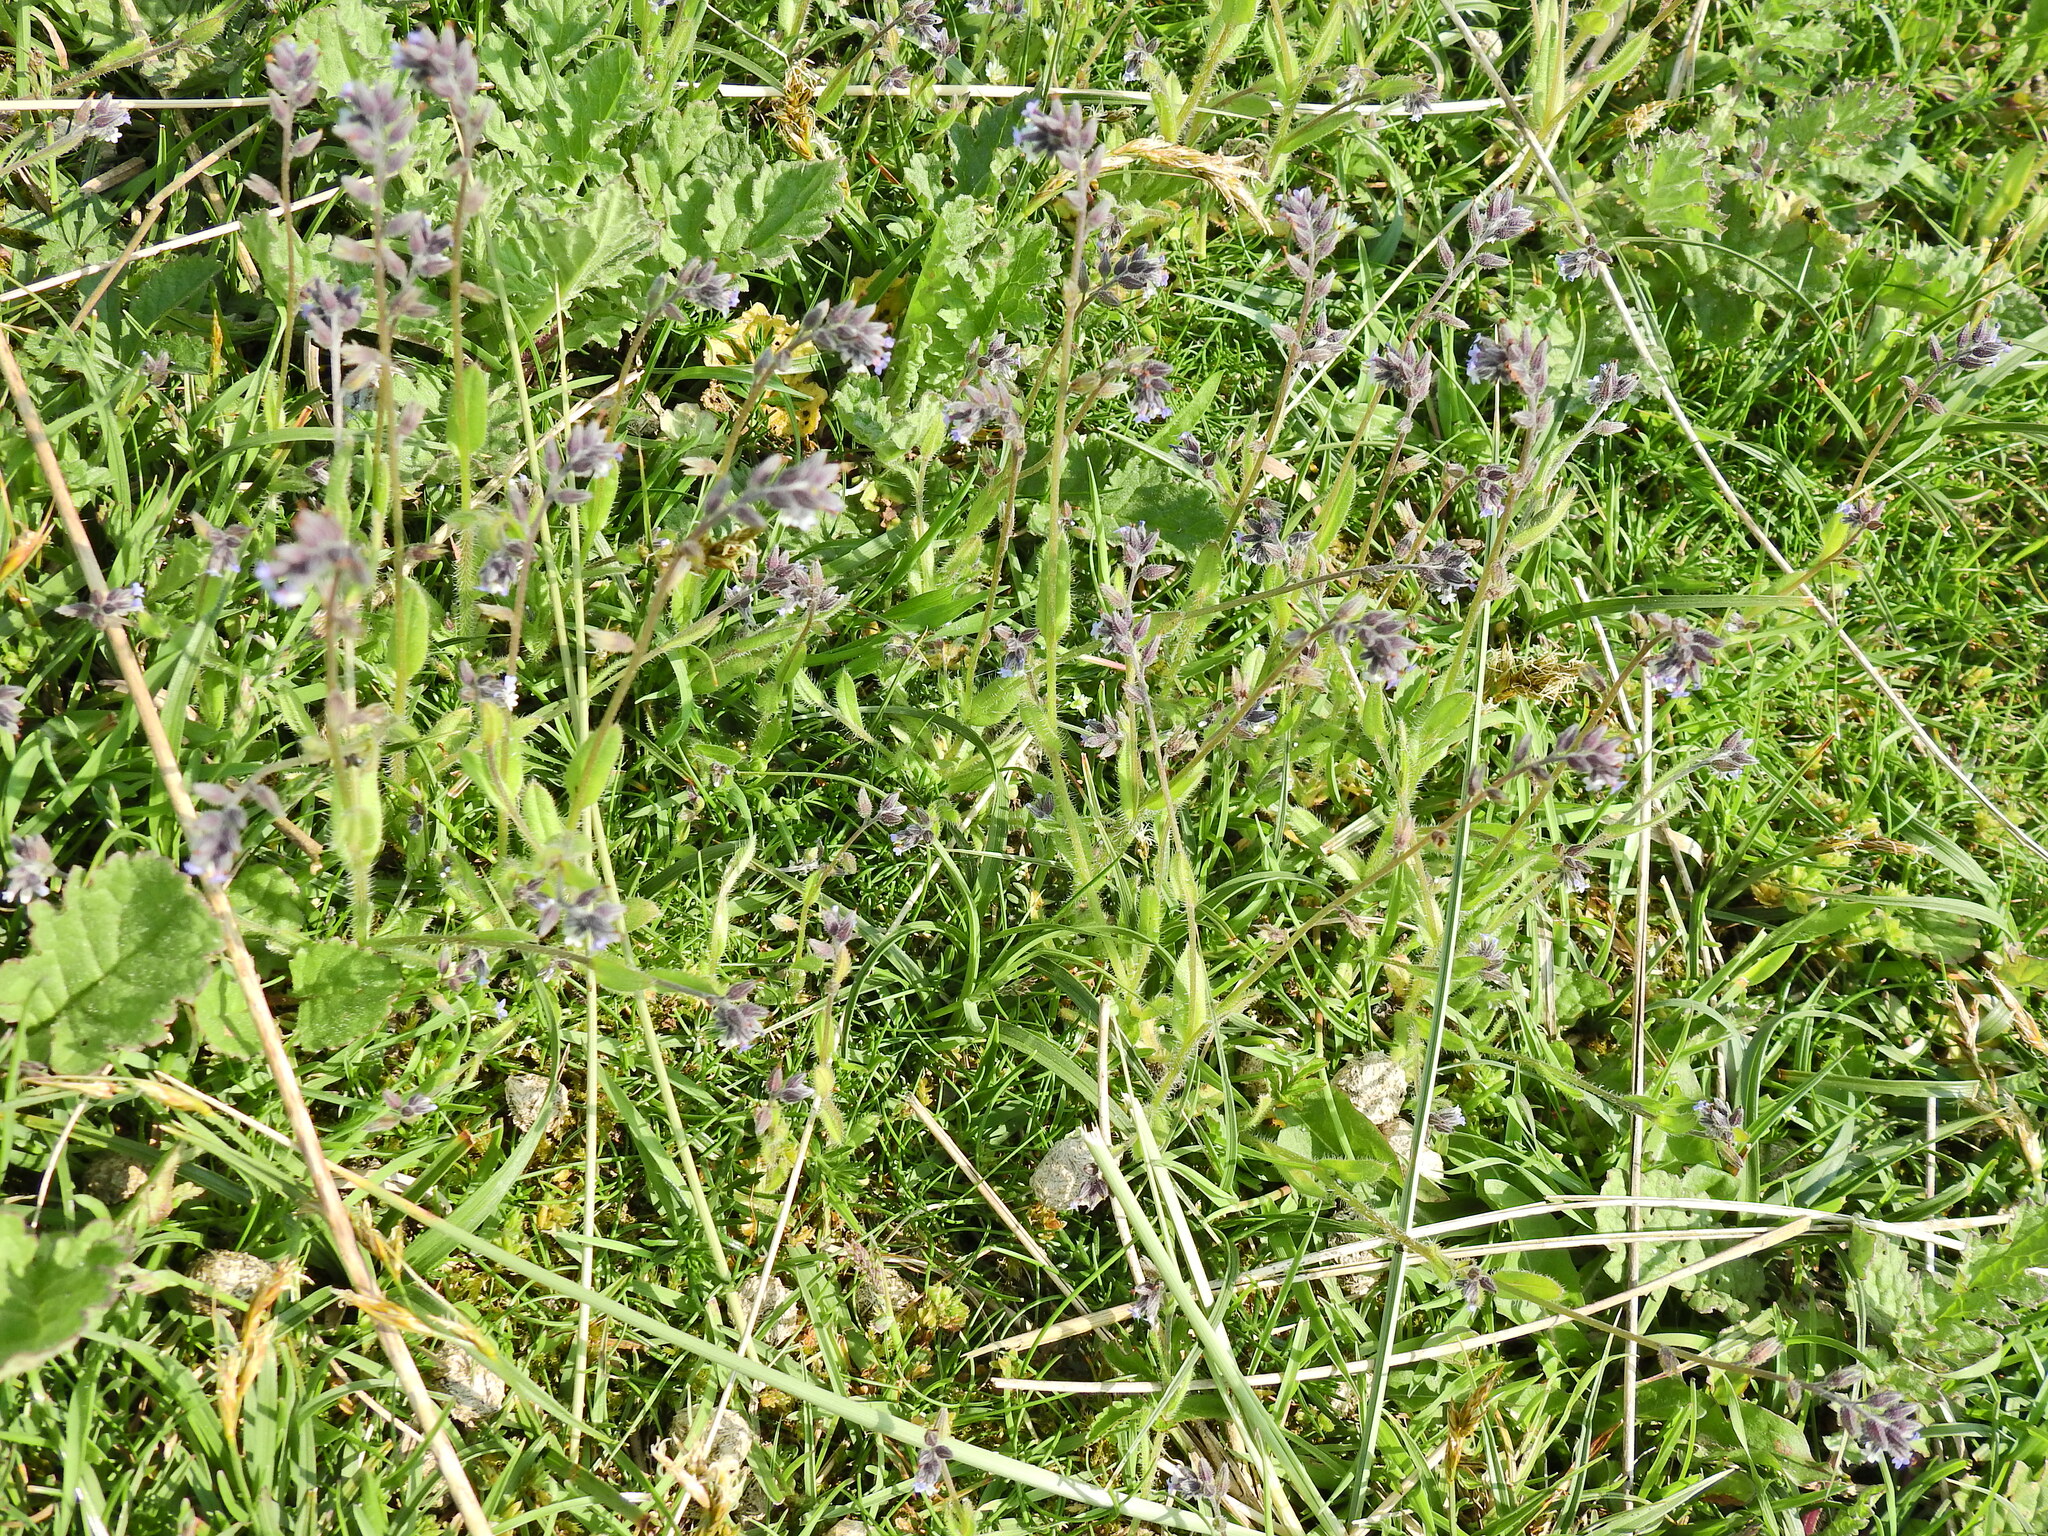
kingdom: Plantae
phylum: Tracheophyta
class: Magnoliopsida
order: Boraginales
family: Boraginaceae
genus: Myosotis
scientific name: Myosotis discolor
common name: Changing forget-me-not
